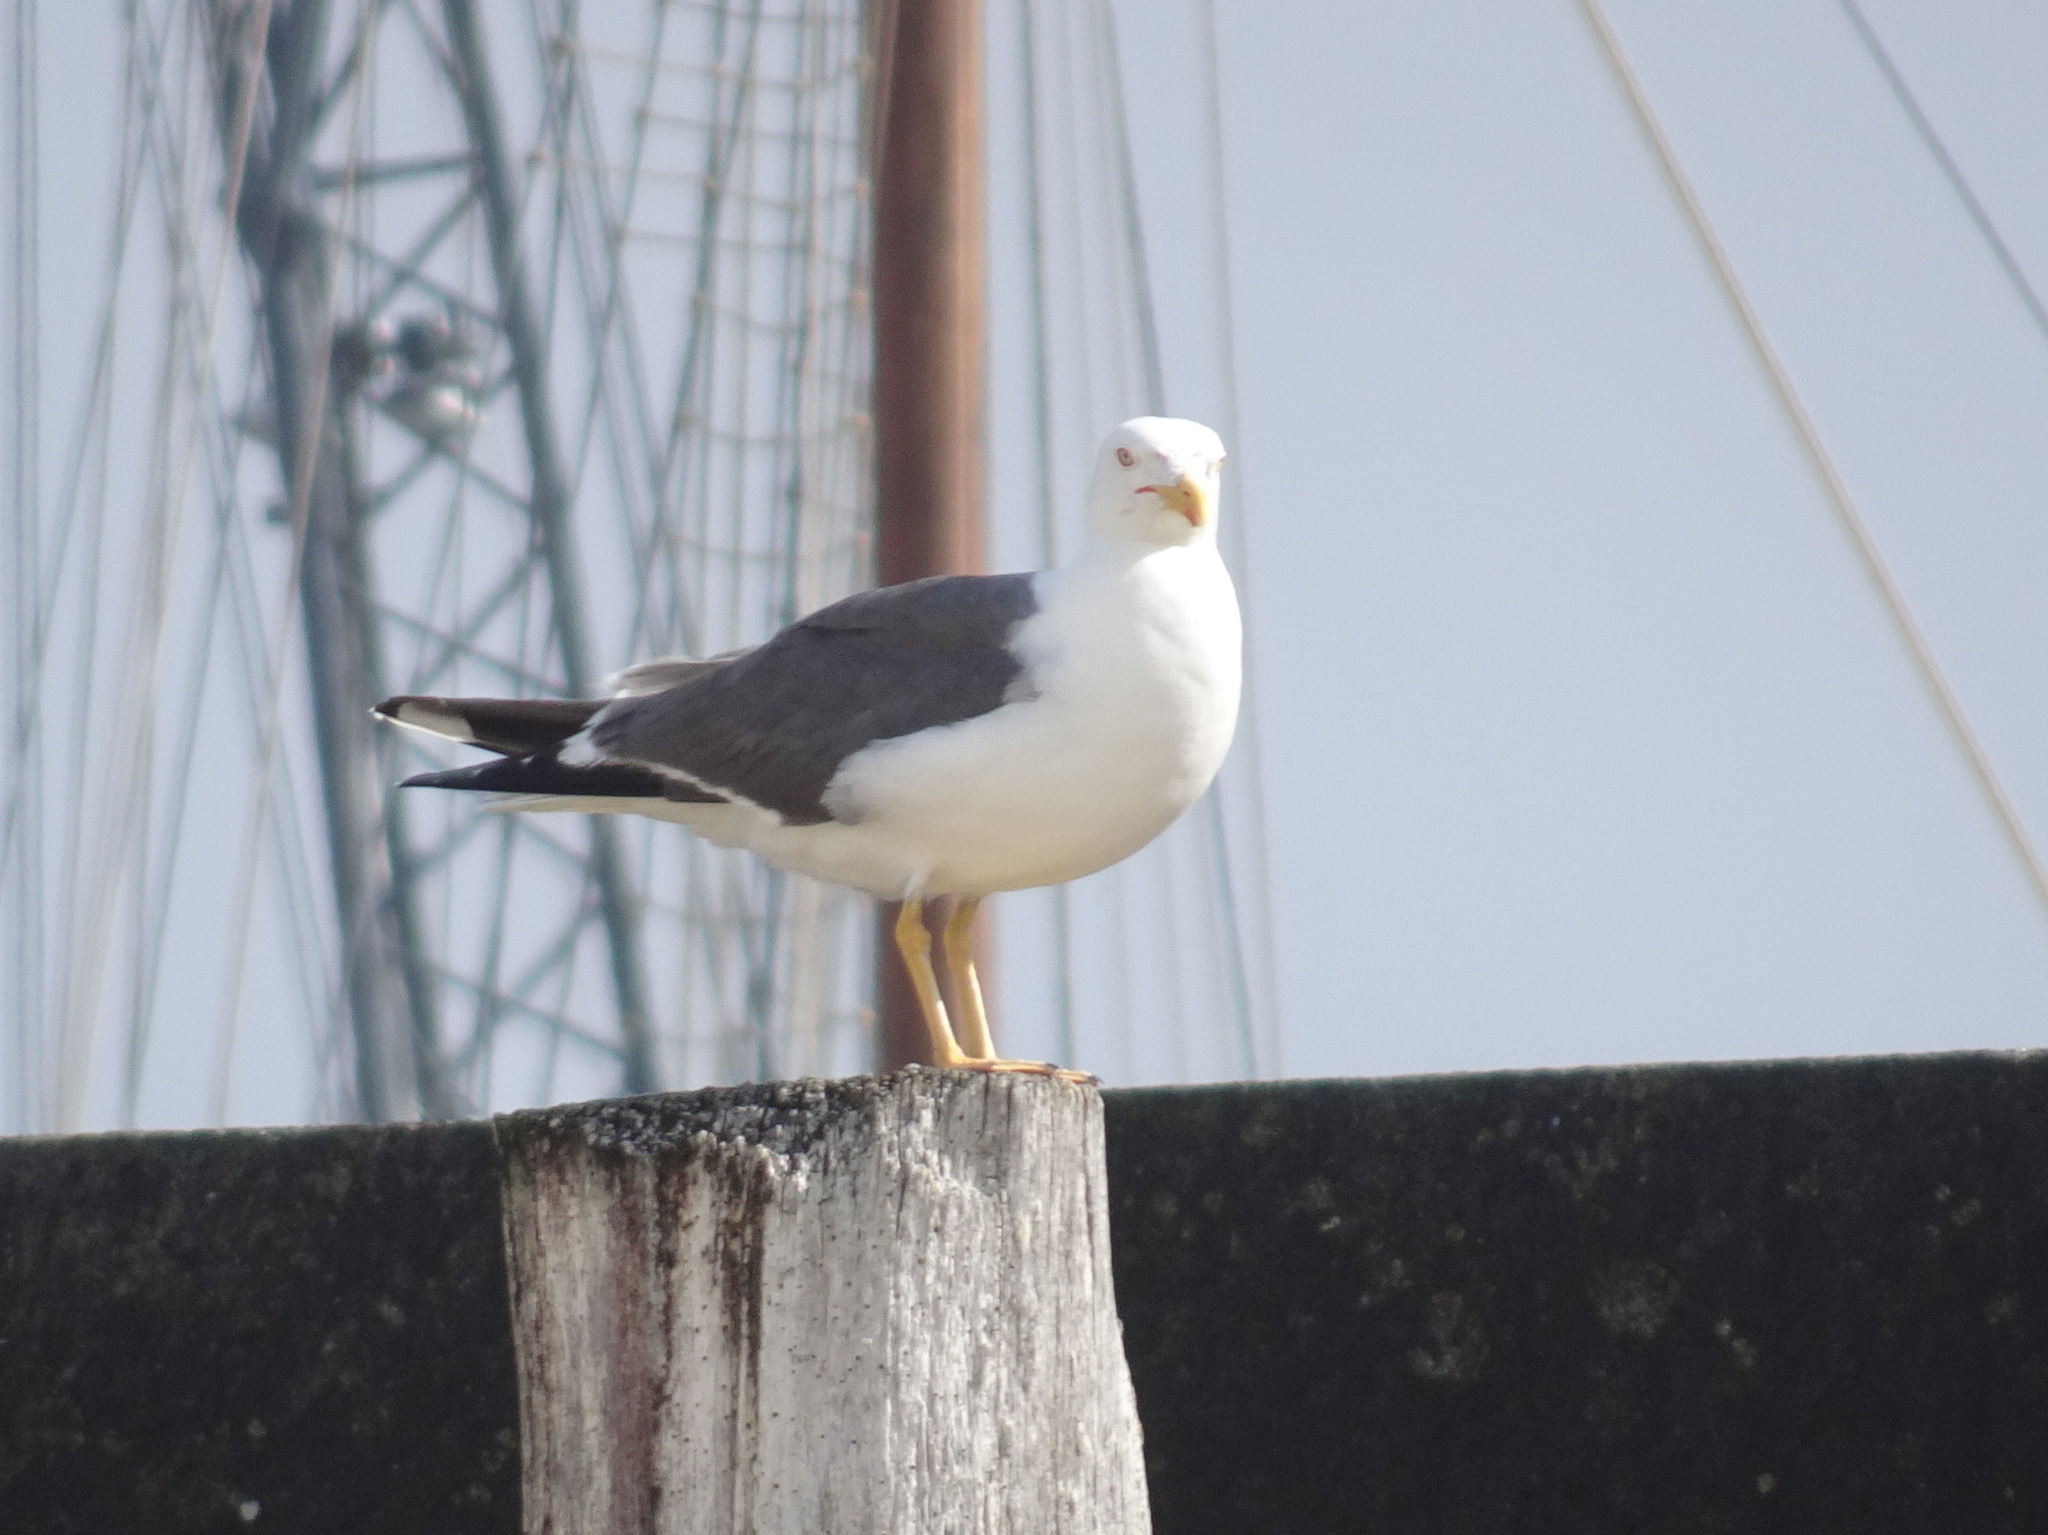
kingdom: Animalia
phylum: Chordata
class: Aves
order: Charadriiformes
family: Laridae
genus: Larus
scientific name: Larus fuscus
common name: Lesser black-backed gull
